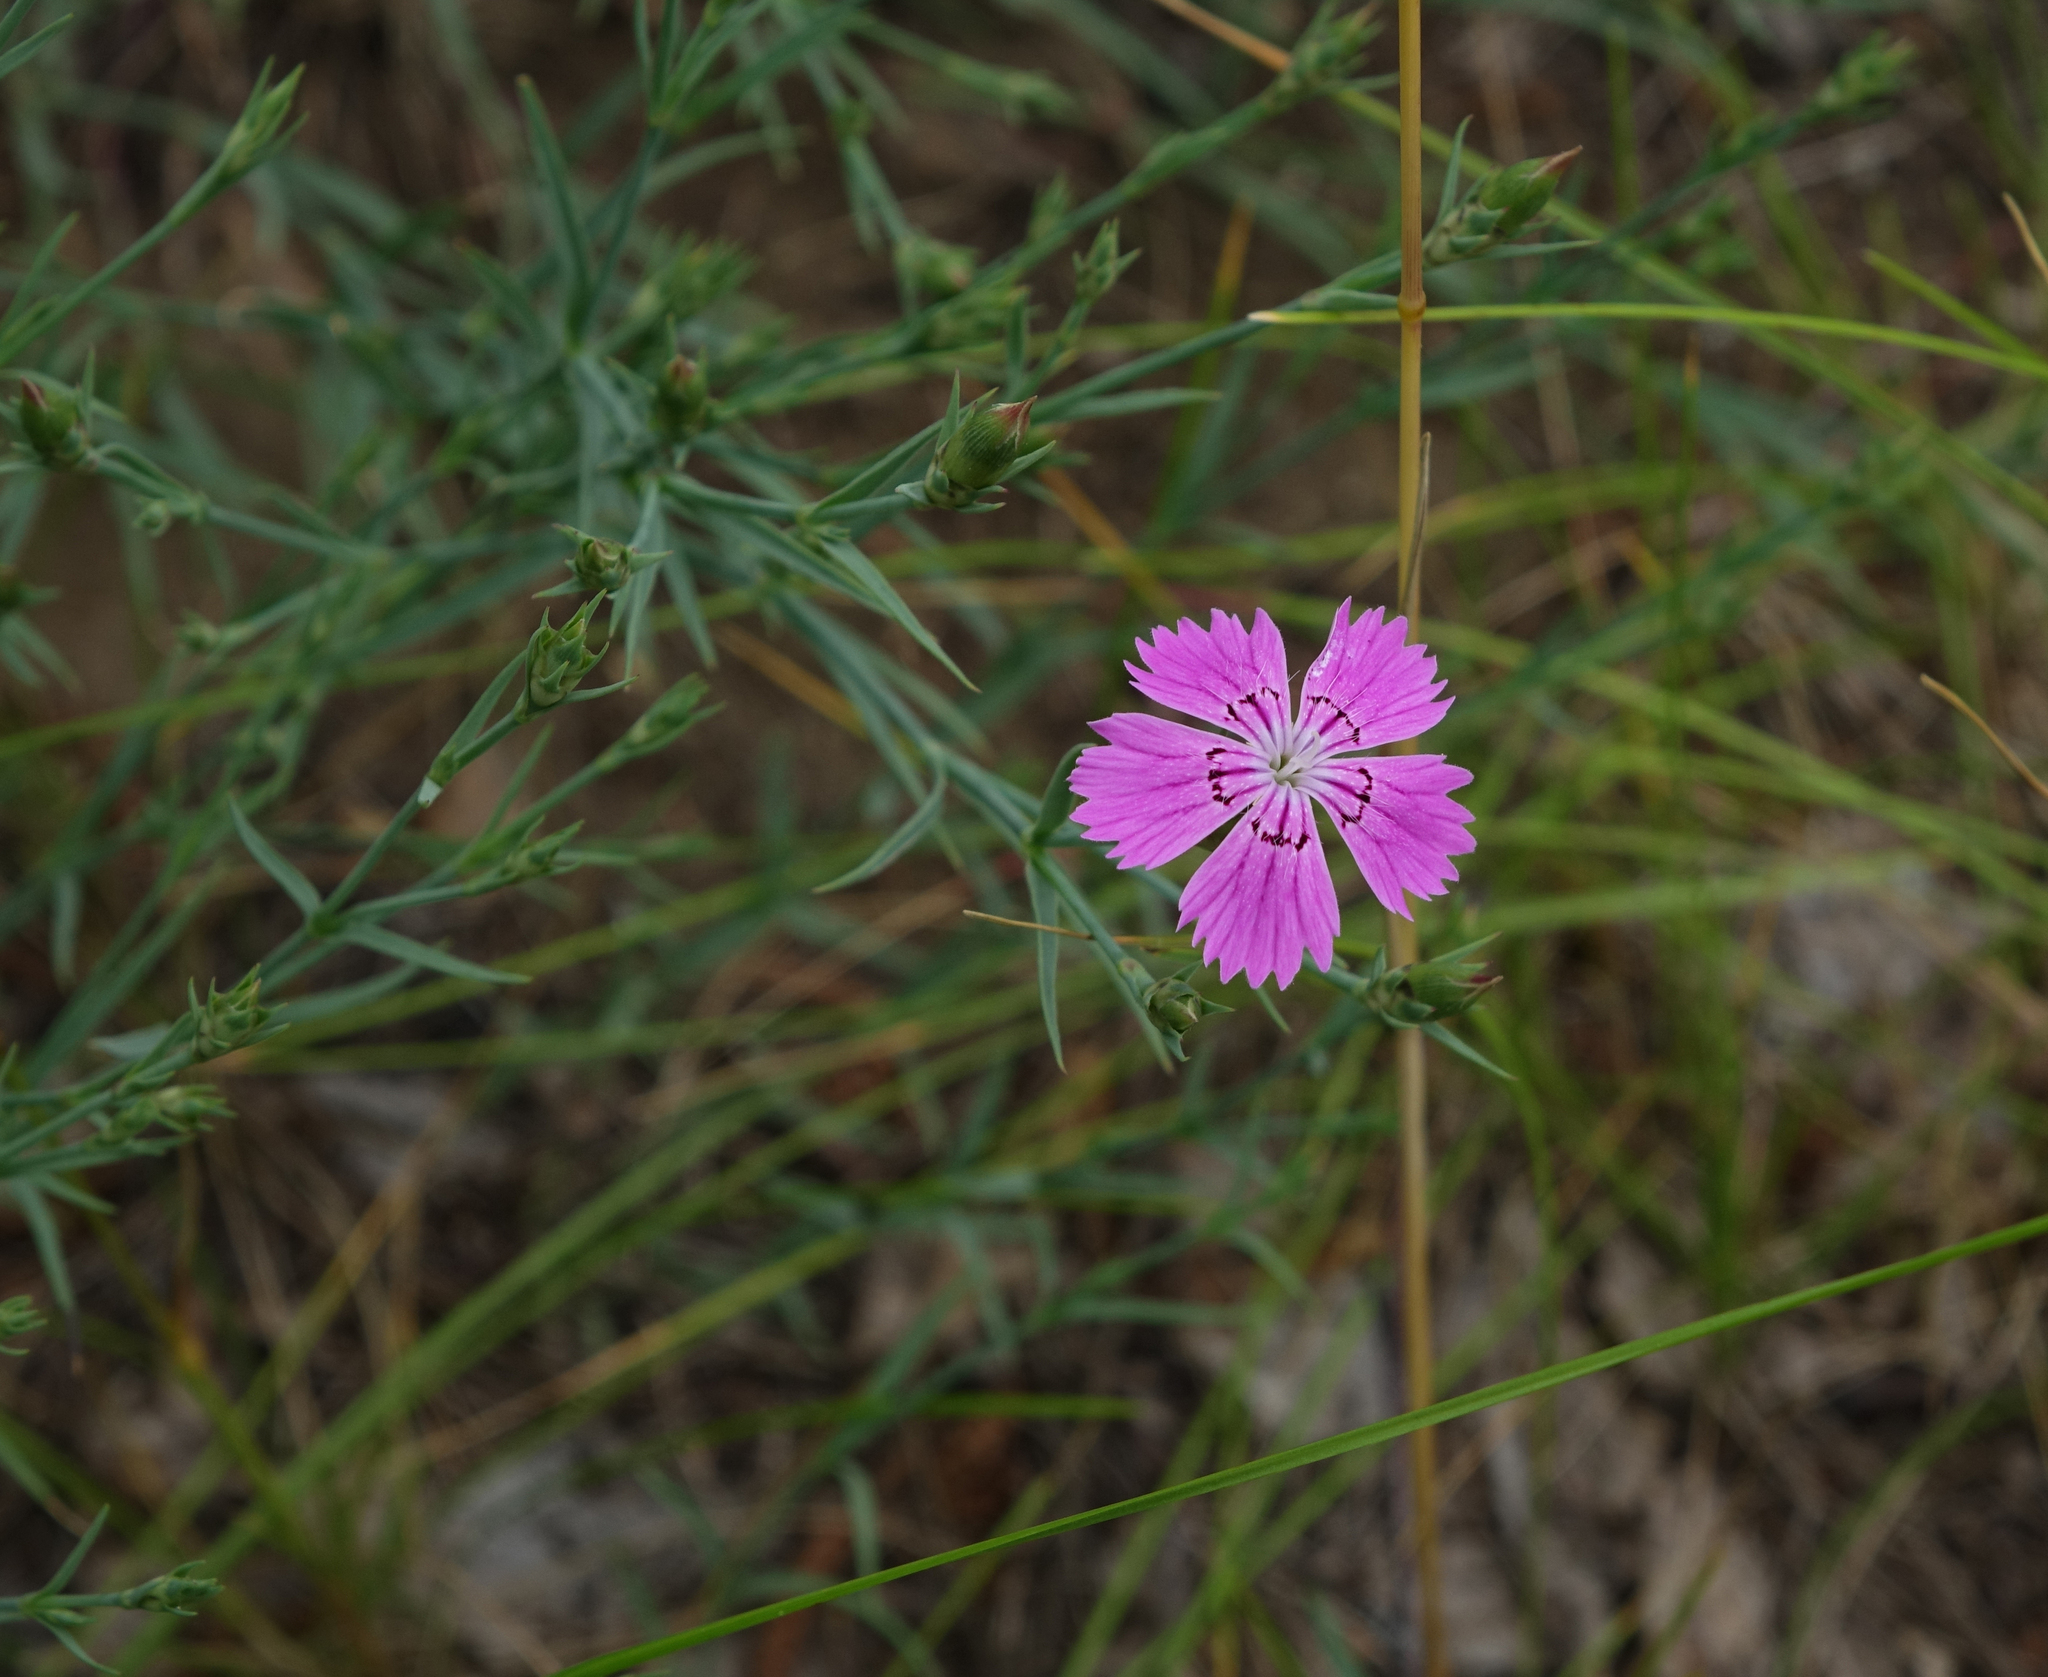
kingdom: Plantae
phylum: Tracheophyta
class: Magnoliopsida
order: Caryophyllales
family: Caryophyllaceae
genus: Dianthus
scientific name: Dianthus chinensis
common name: Rainbow pink
